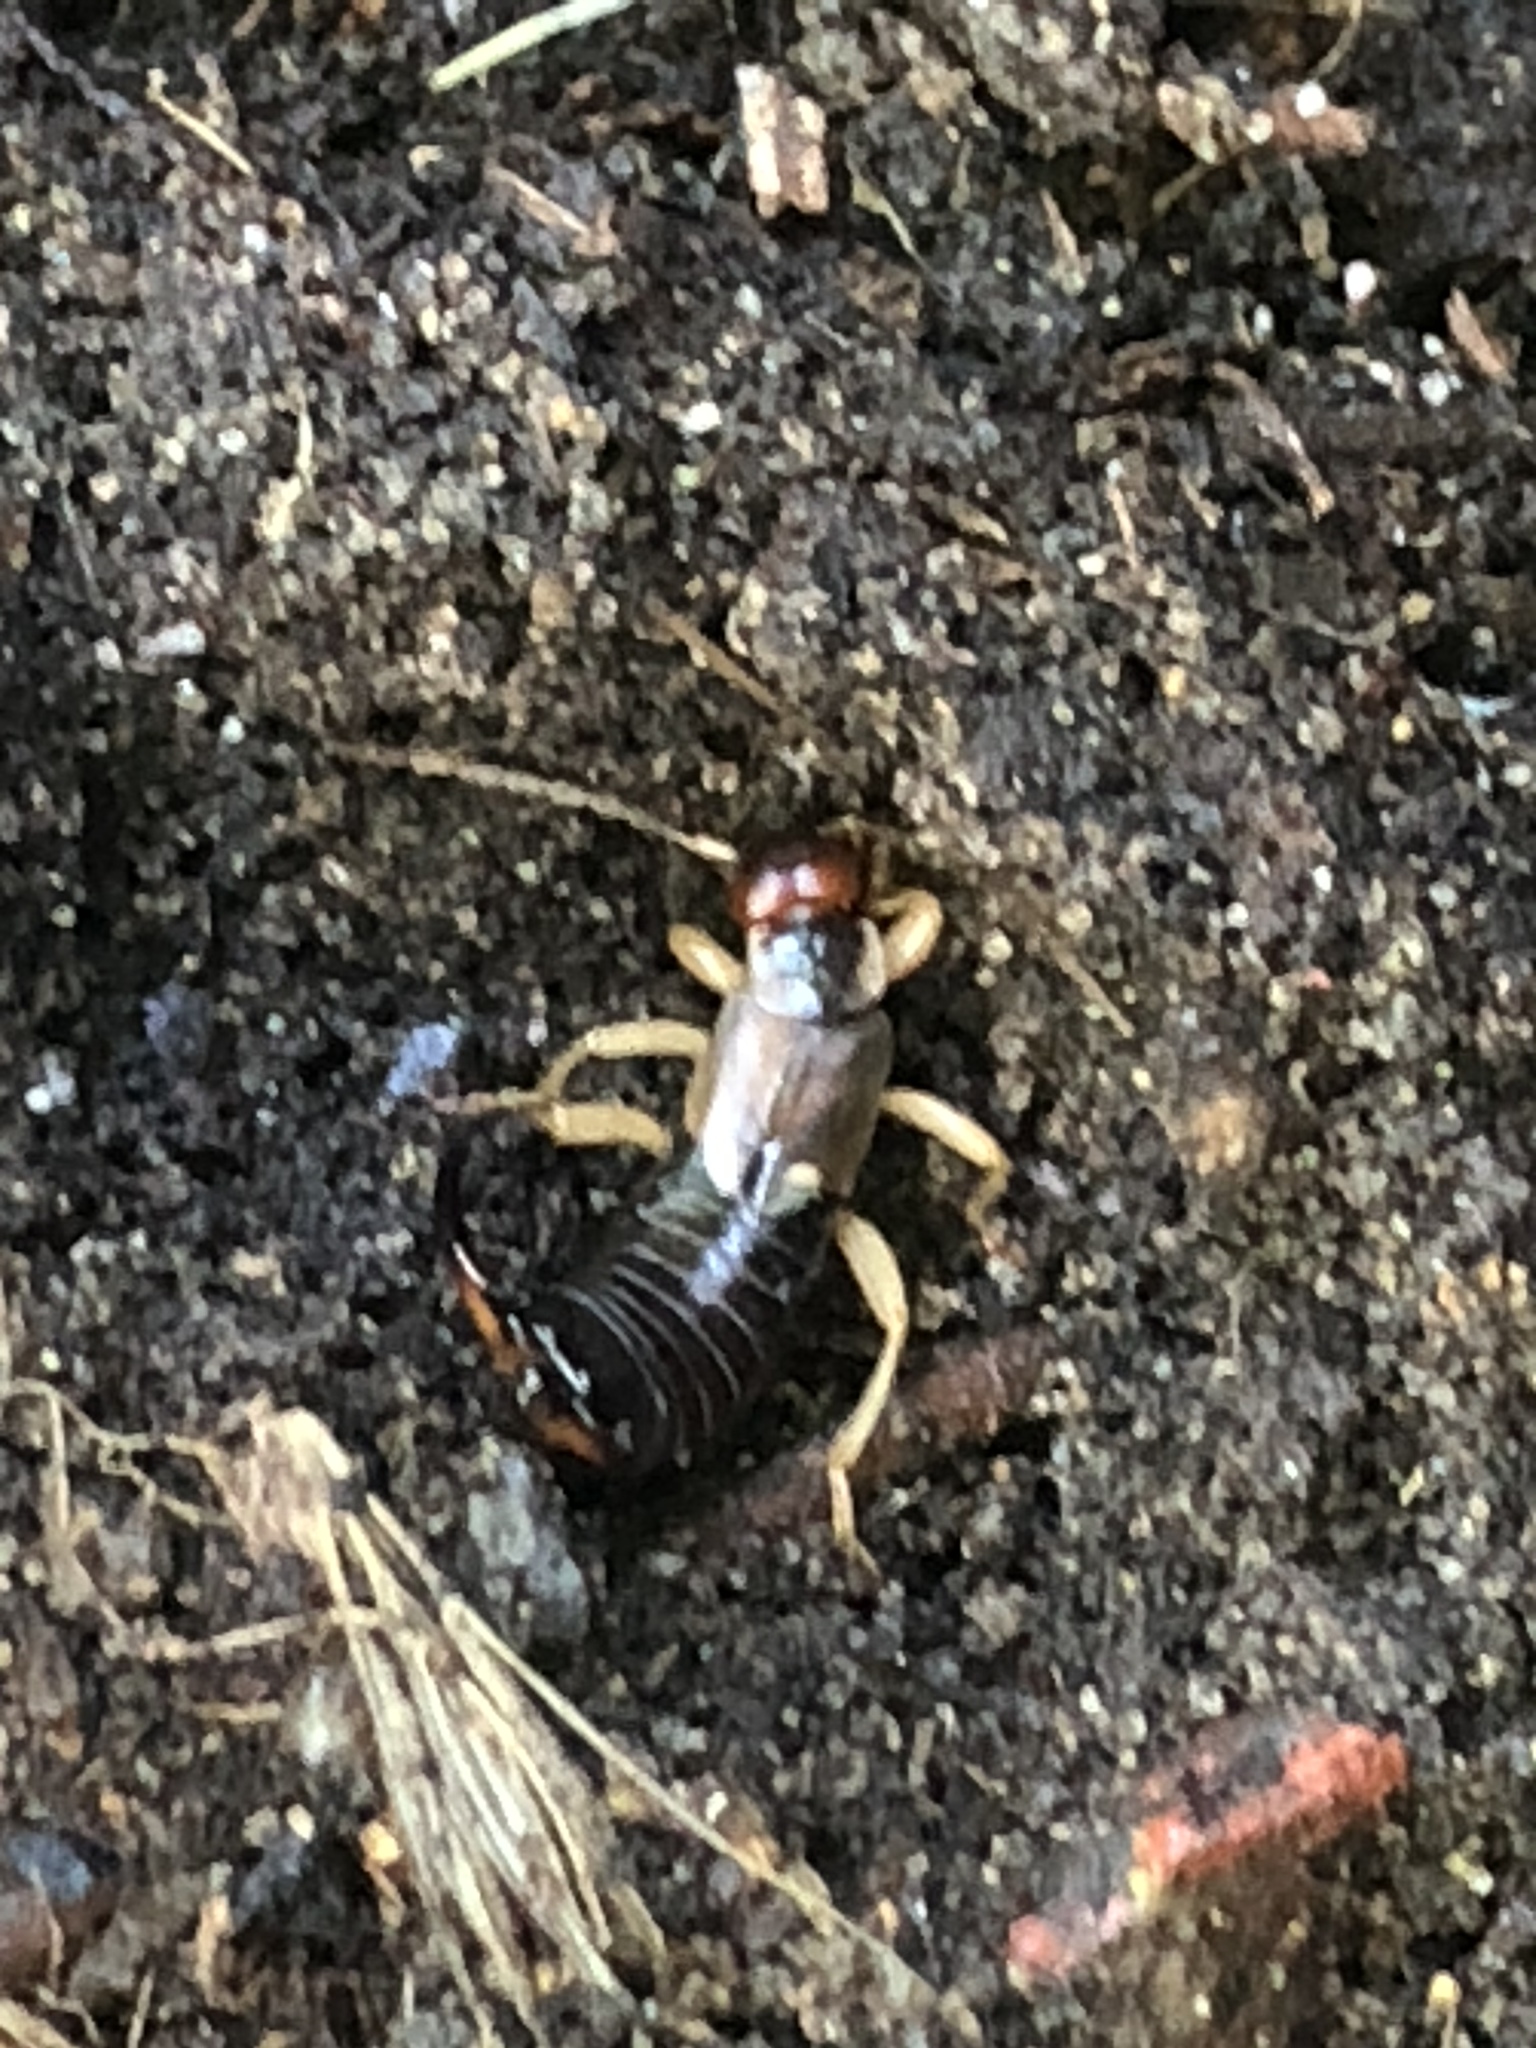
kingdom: Animalia
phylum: Arthropoda
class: Insecta
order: Dermaptera
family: Forficulidae
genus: Forficula
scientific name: Forficula
